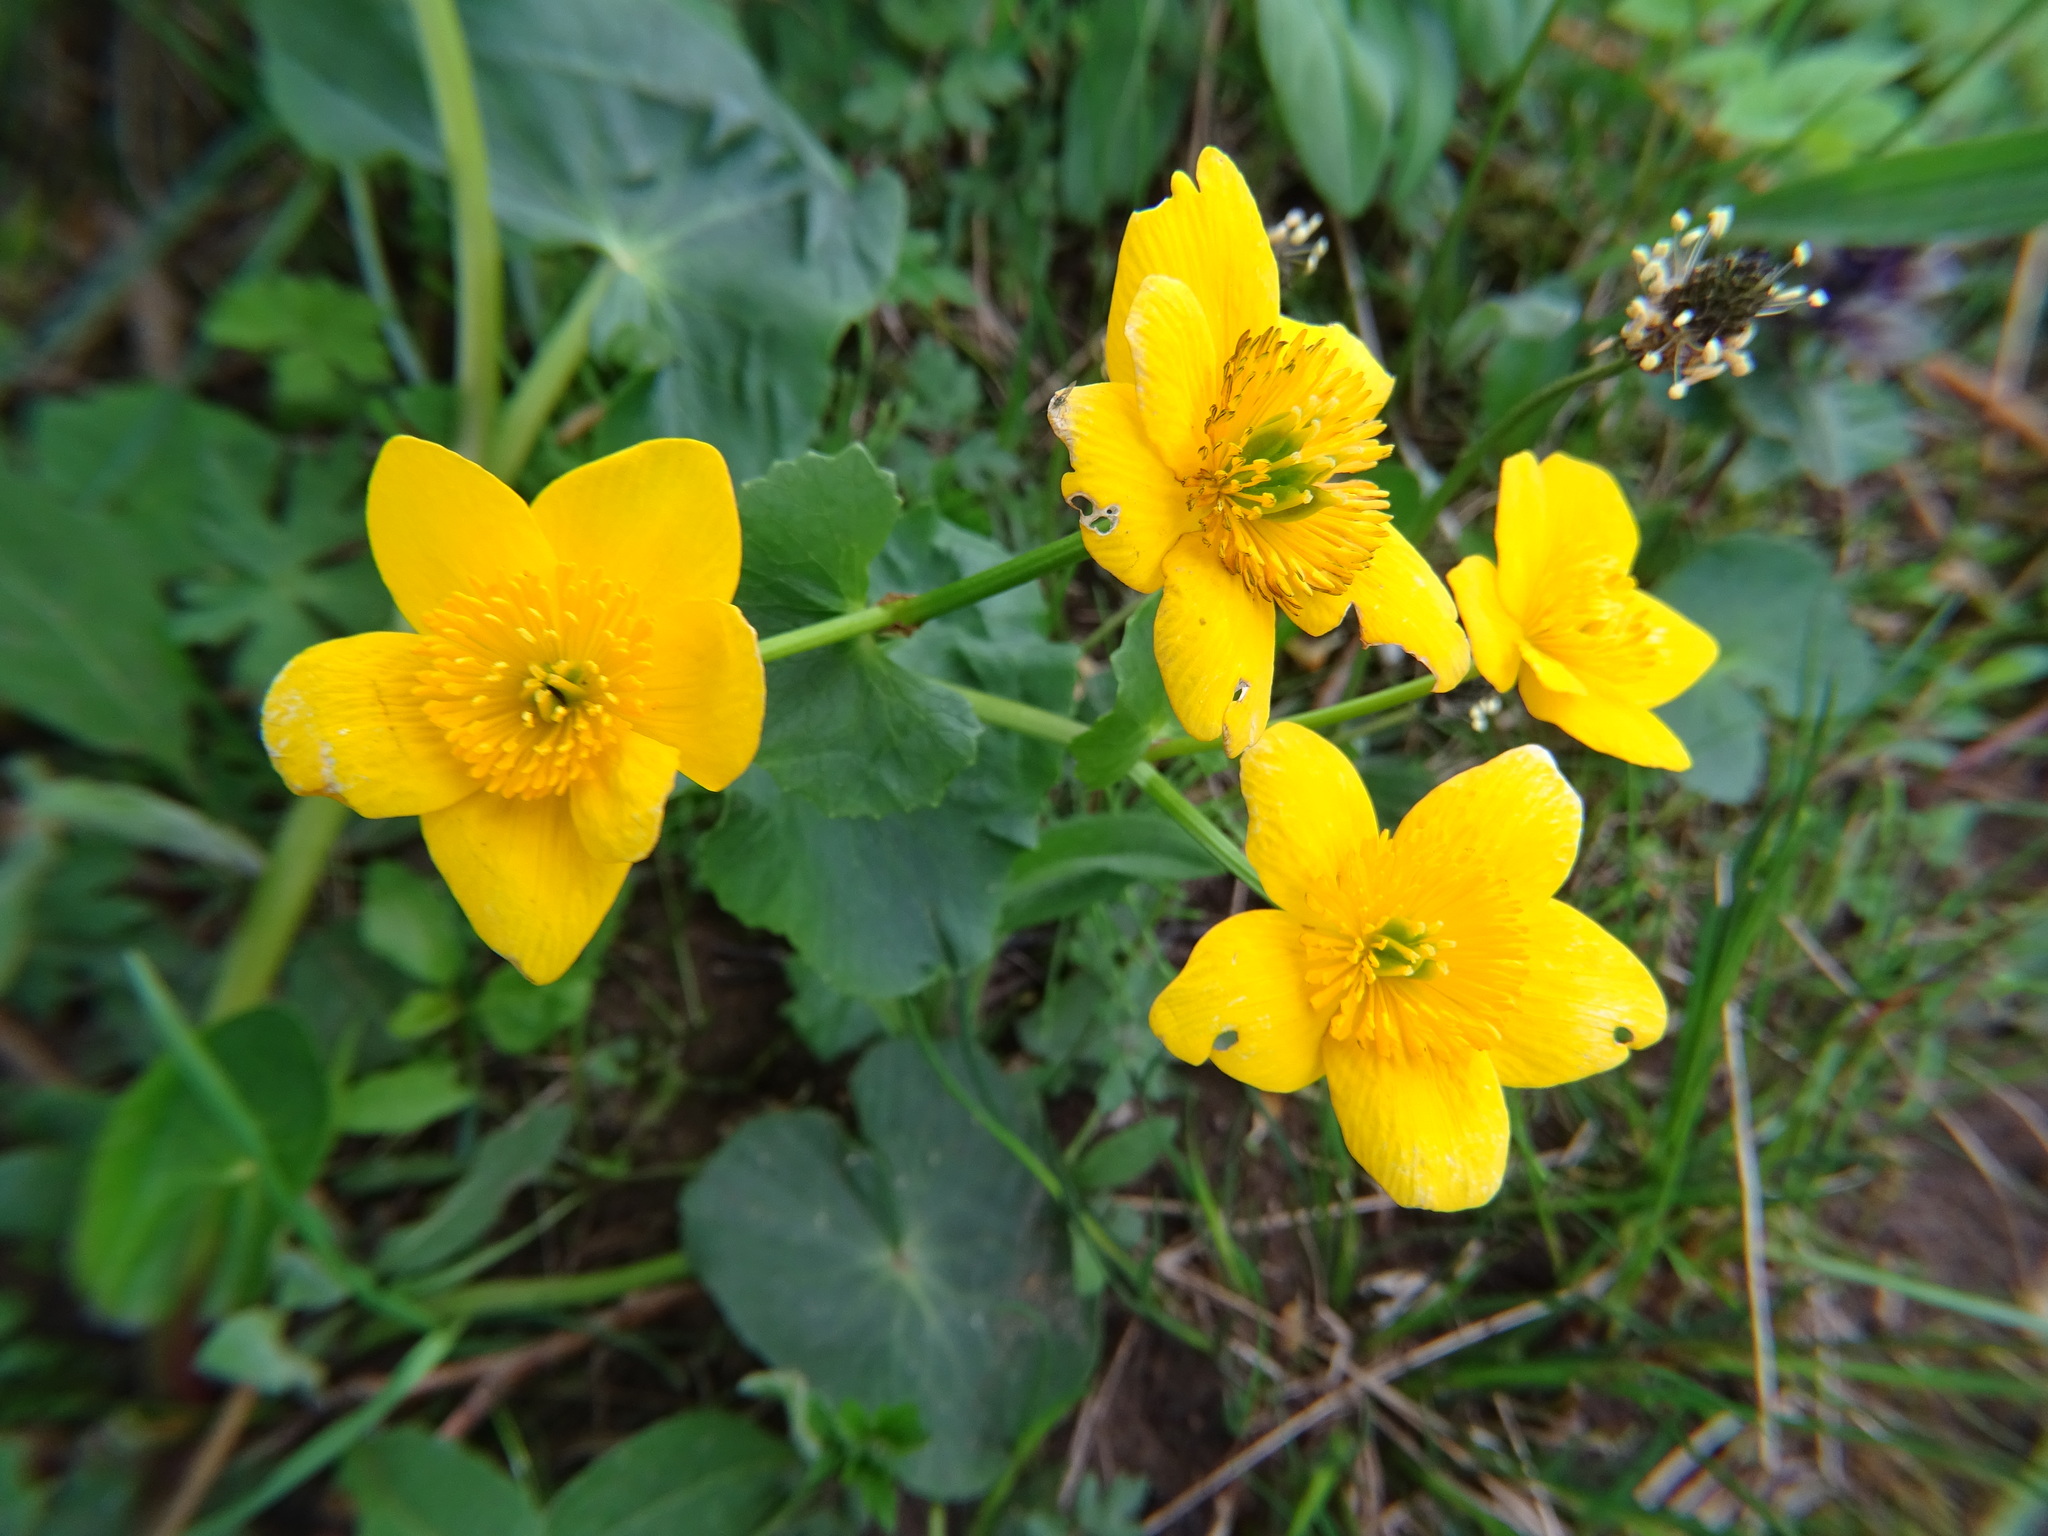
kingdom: Plantae
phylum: Tracheophyta
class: Magnoliopsida
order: Ranunculales
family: Ranunculaceae
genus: Caltha
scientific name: Caltha palustris
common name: Marsh marigold
